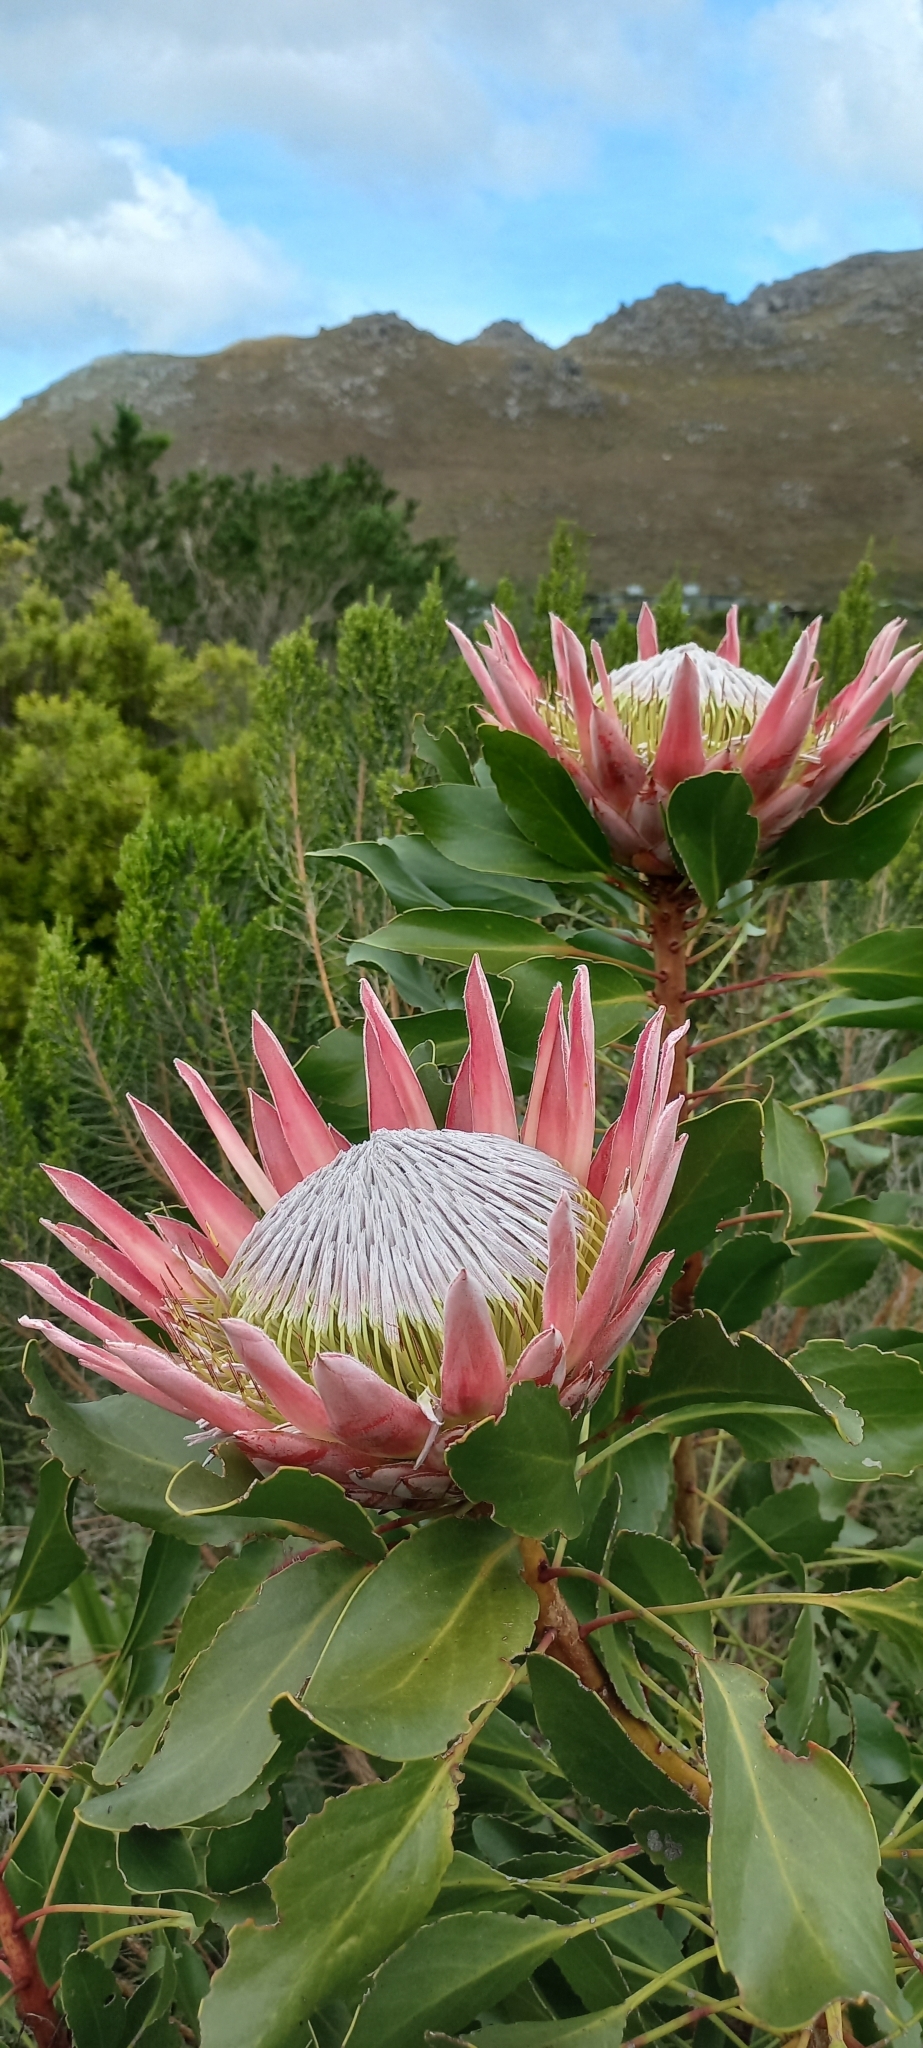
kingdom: Plantae
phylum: Tracheophyta
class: Magnoliopsida
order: Proteales
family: Proteaceae
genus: Protea
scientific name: Protea cynaroides
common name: King protea
